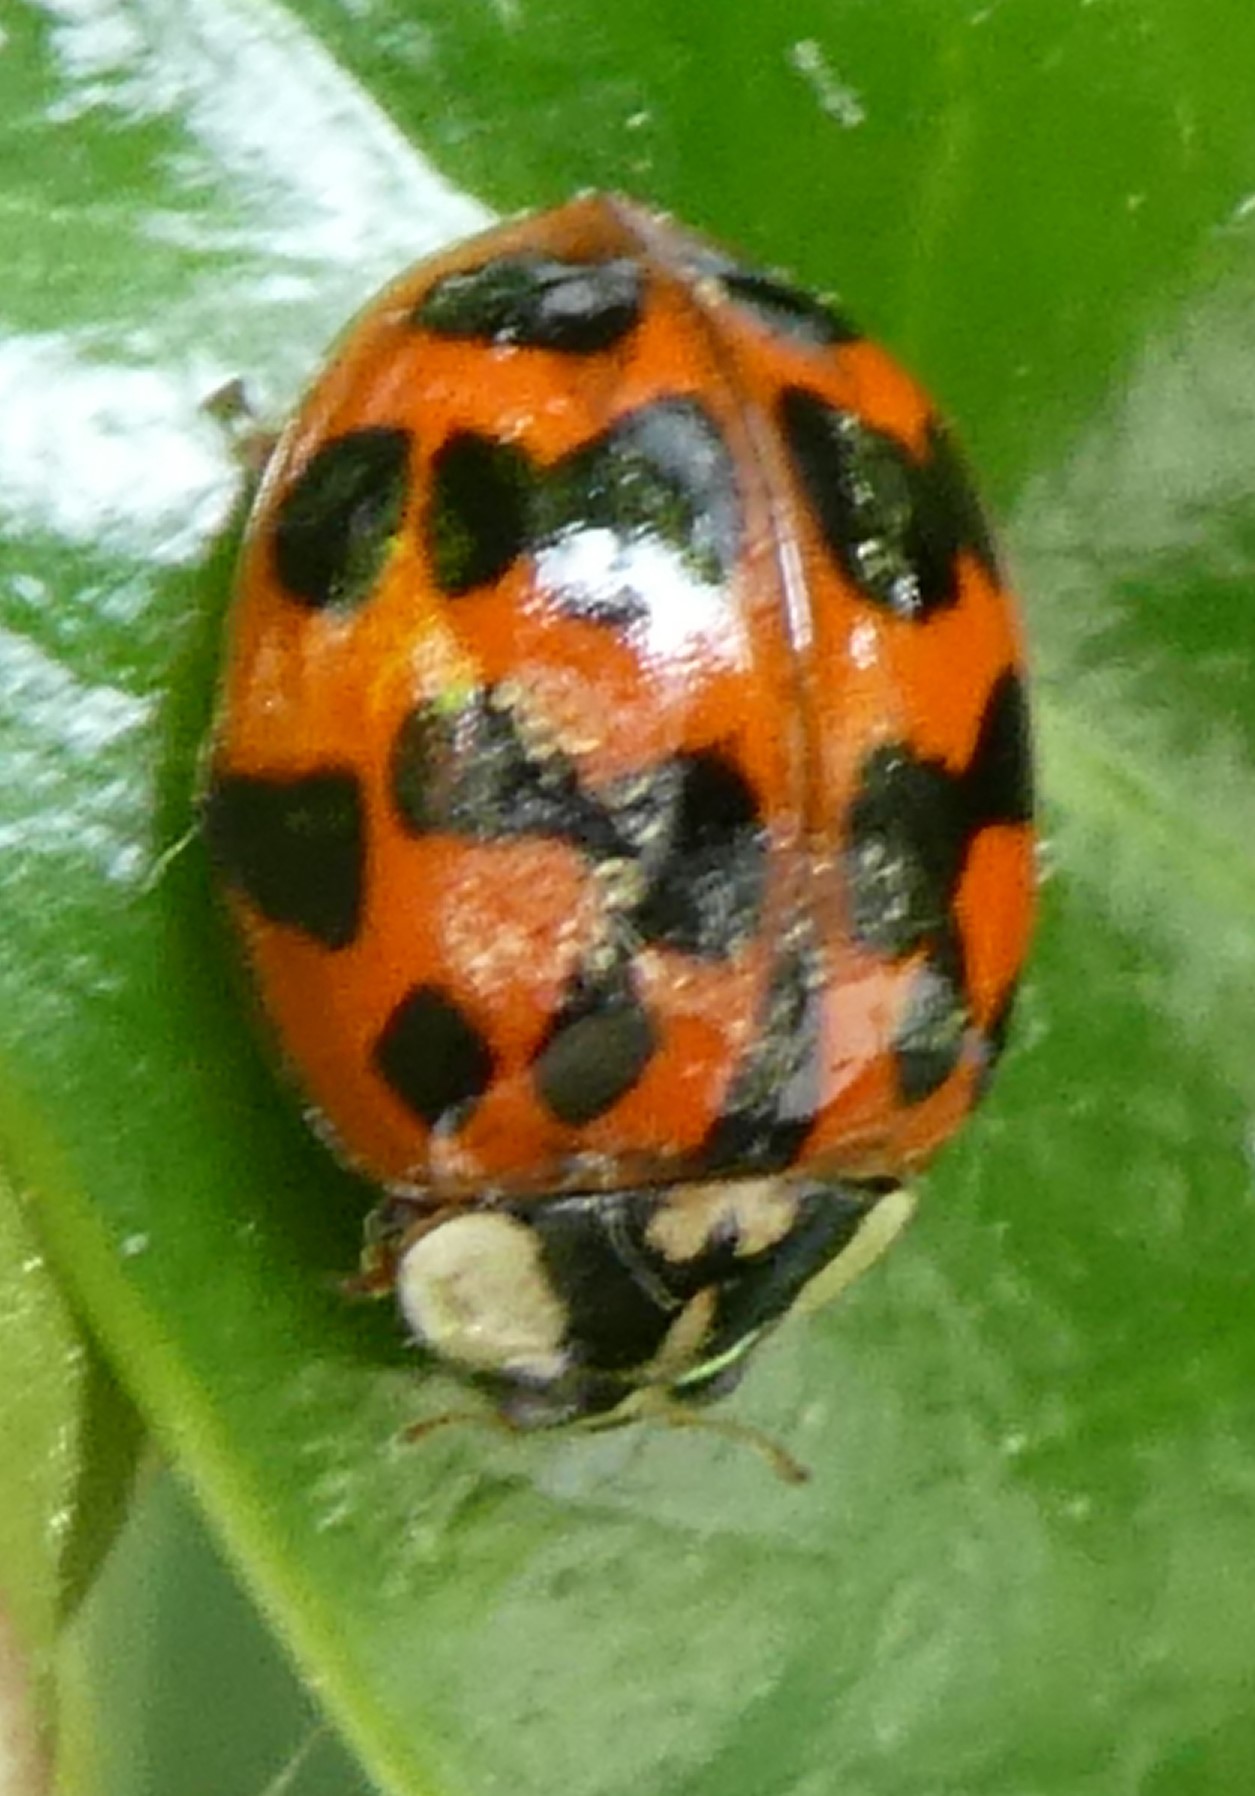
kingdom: Animalia
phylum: Arthropoda
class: Insecta
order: Coleoptera
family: Coccinellidae
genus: Harmonia
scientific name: Harmonia axyridis
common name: Harlequin ladybird
